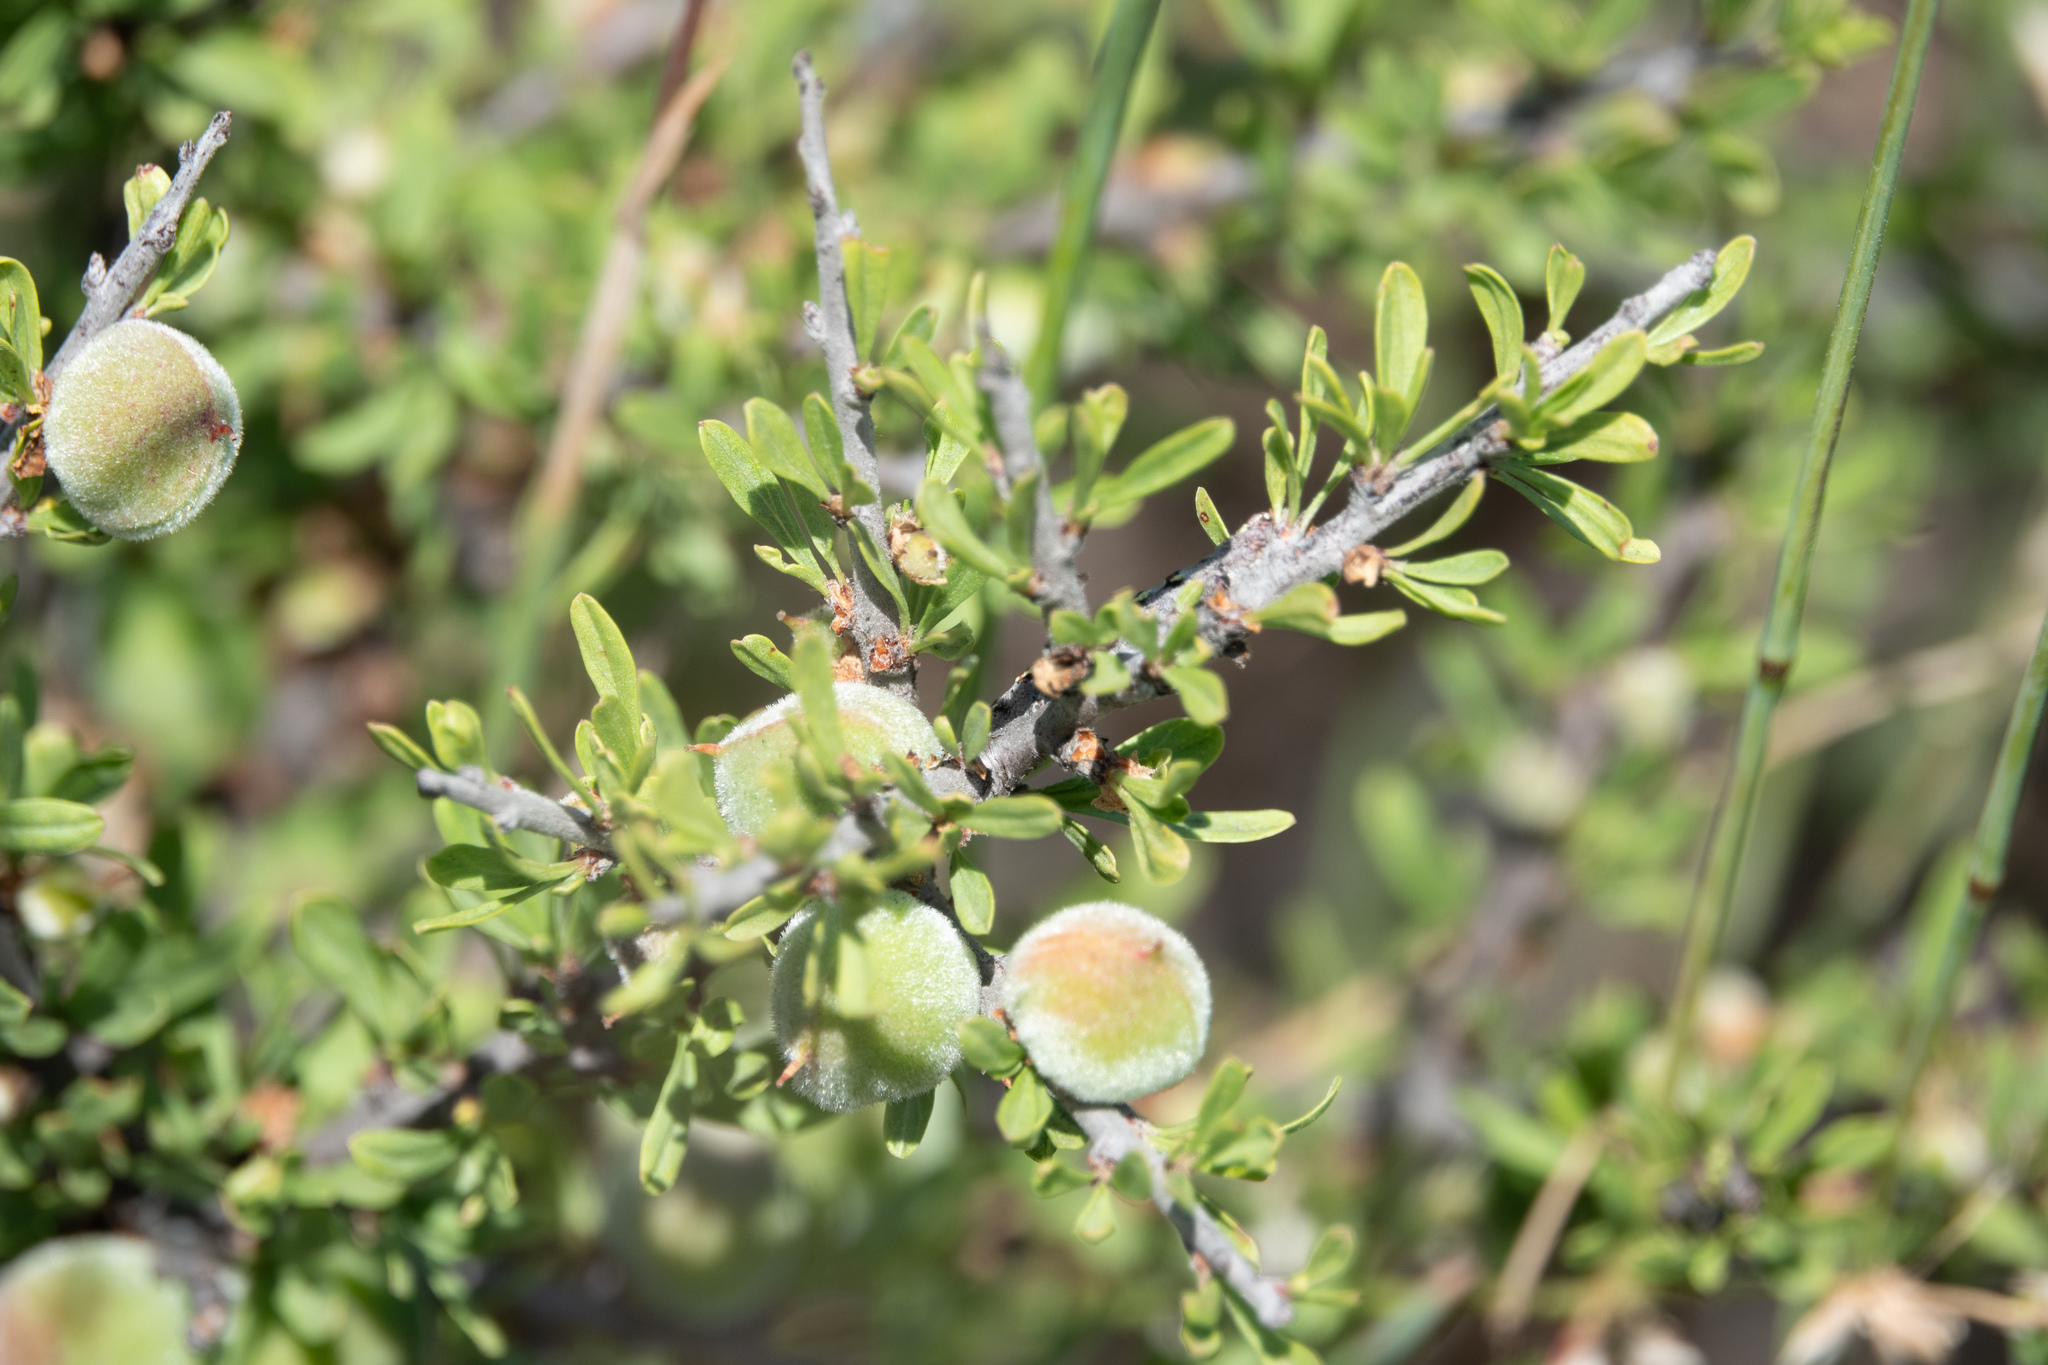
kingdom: Plantae
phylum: Tracheophyta
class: Magnoliopsida
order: Rosales
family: Rosaceae
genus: Prunus
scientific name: Prunus fasciculata
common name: Desert almond
